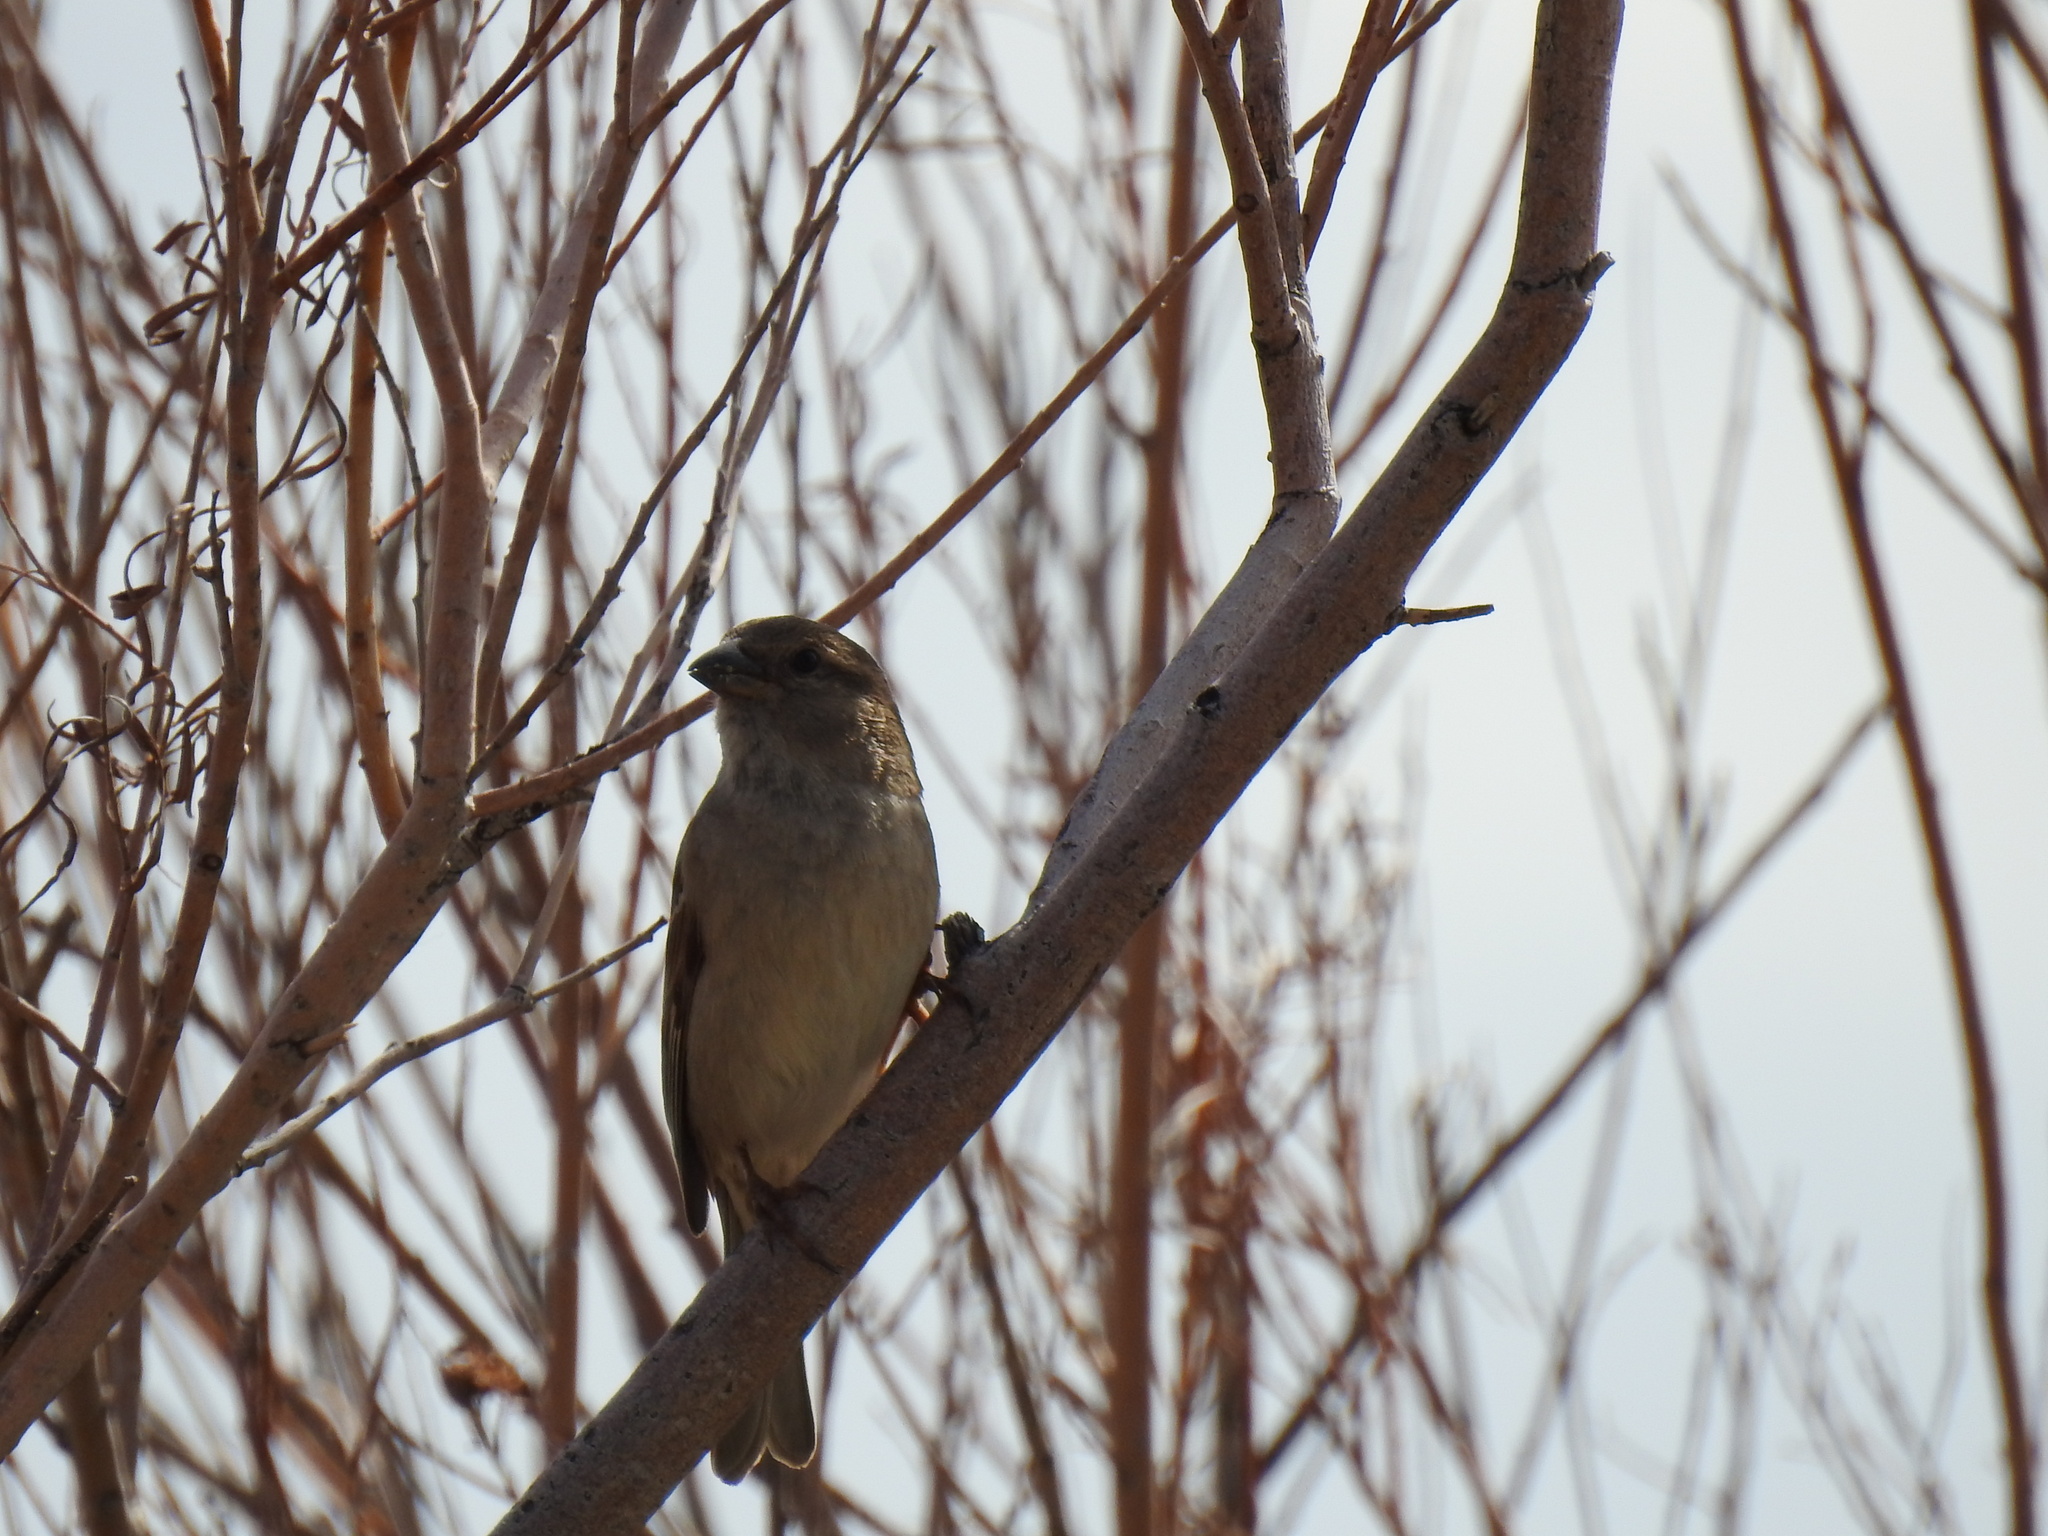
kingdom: Animalia
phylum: Chordata
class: Aves
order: Passeriformes
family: Passeridae
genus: Passer
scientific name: Passer domesticus
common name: House sparrow
